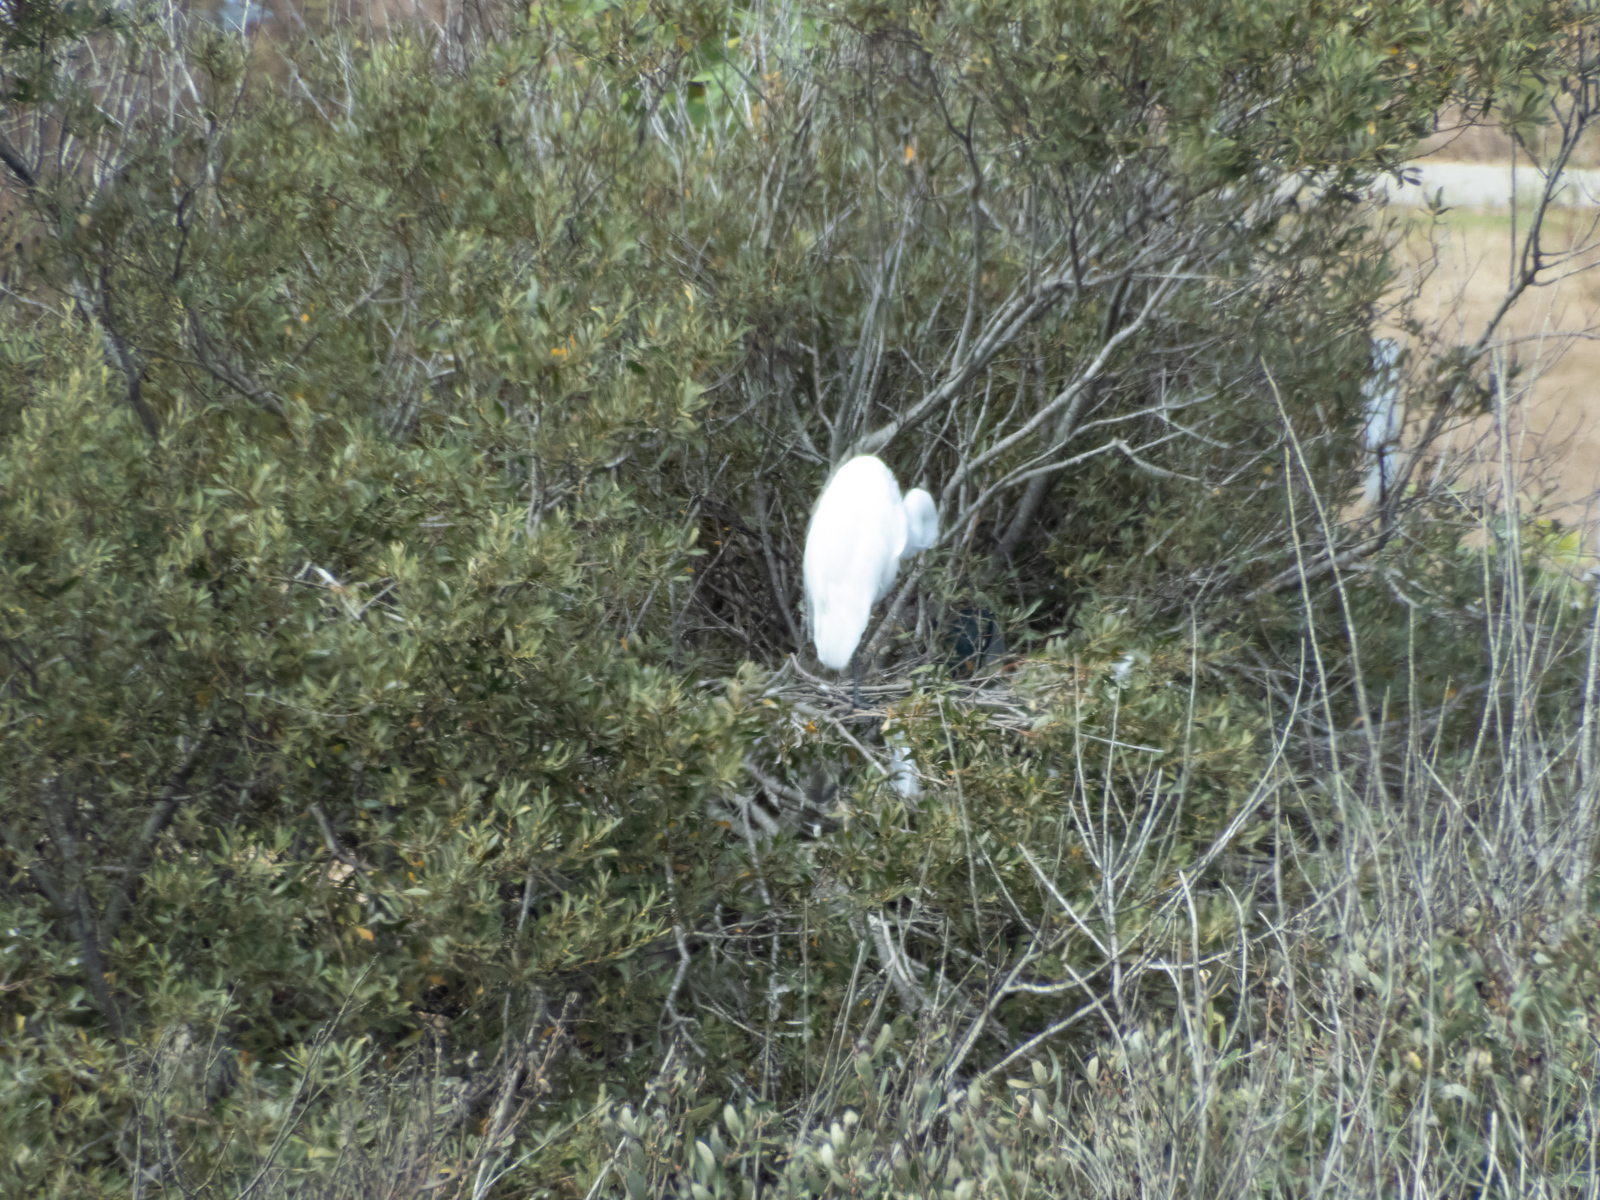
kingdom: Animalia
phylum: Chordata
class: Aves
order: Pelecaniformes
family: Ardeidae
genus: Ardea
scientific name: Ardea alba
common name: Great egret
